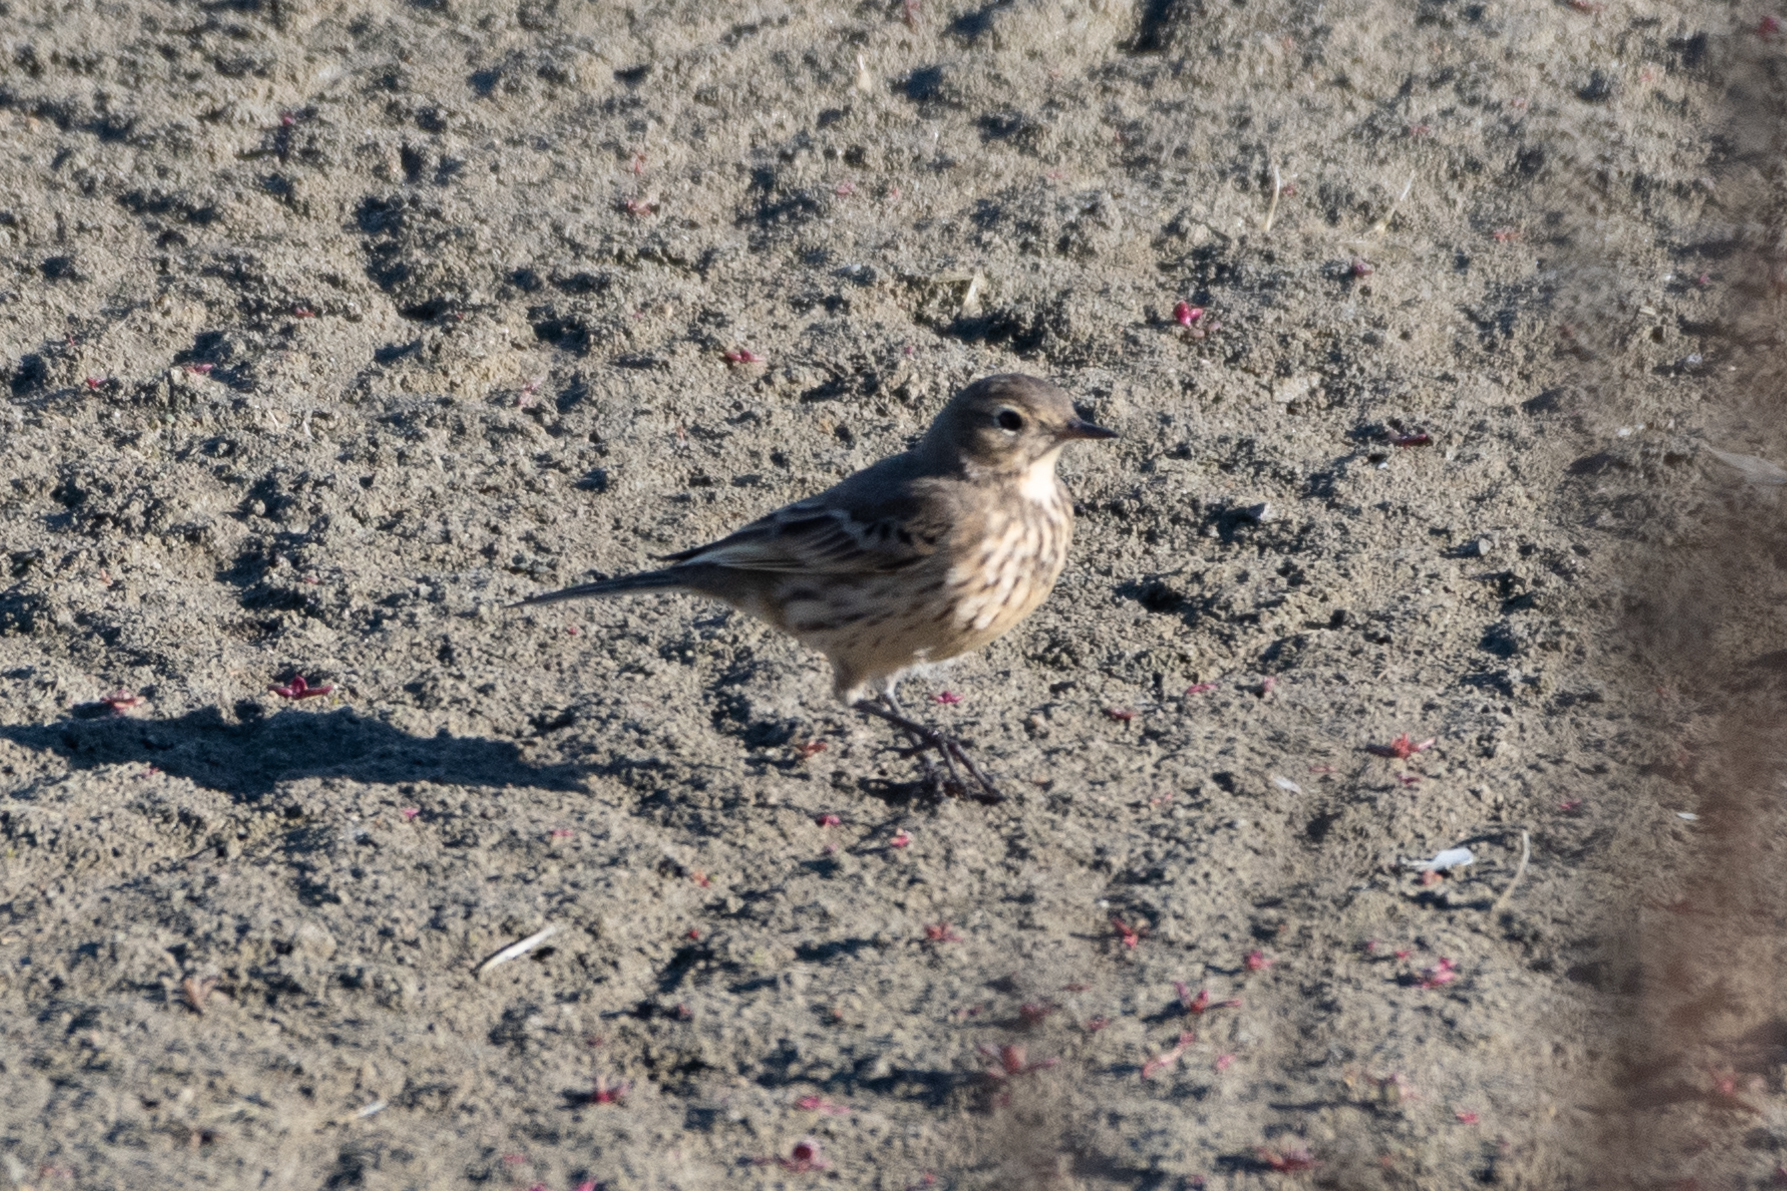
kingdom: Animalia
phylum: Chordata
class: Aves
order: Passeriformes
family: Motacillidae
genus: Anthus
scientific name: Anthus rubescens
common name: Buff-bellied pipit
